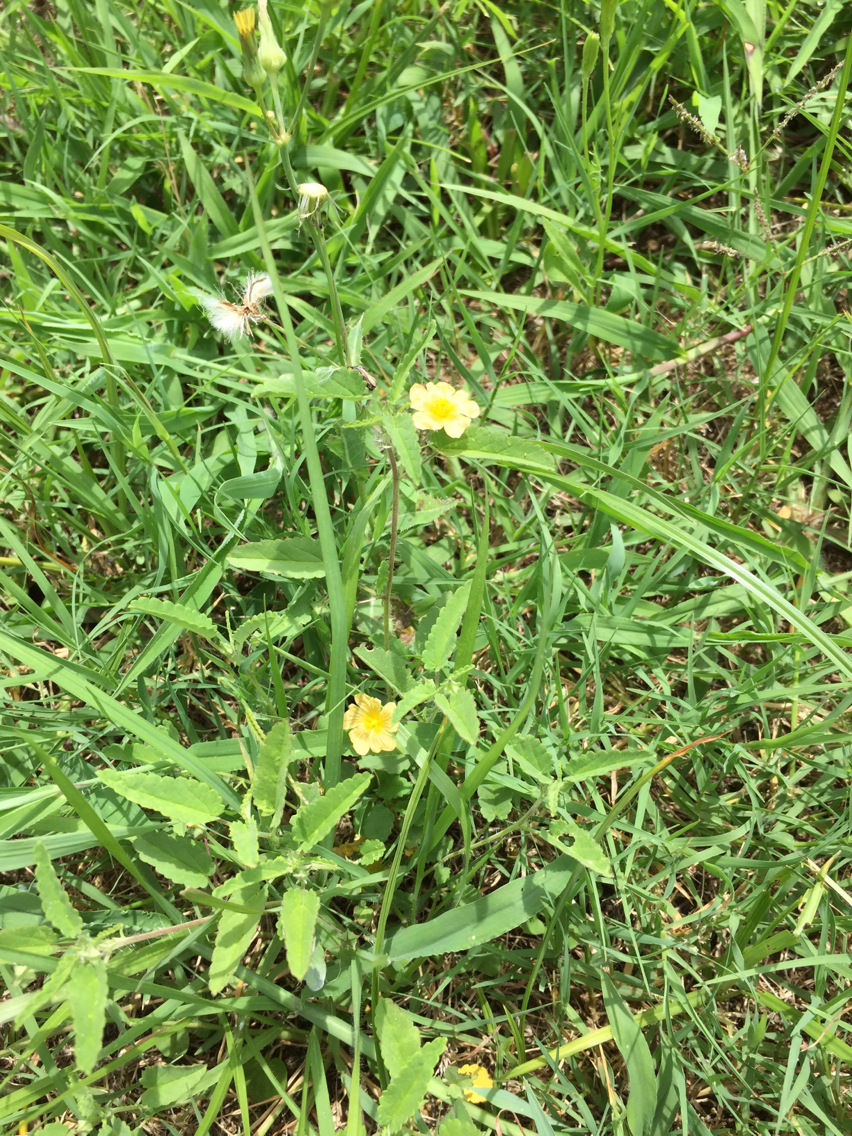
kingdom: Plantae
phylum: Tracheophyta
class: Magnoliopsida
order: Malvales
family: Malvaceae
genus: Sida
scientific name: Sida abutilifolia
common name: Spreading fanpetals
